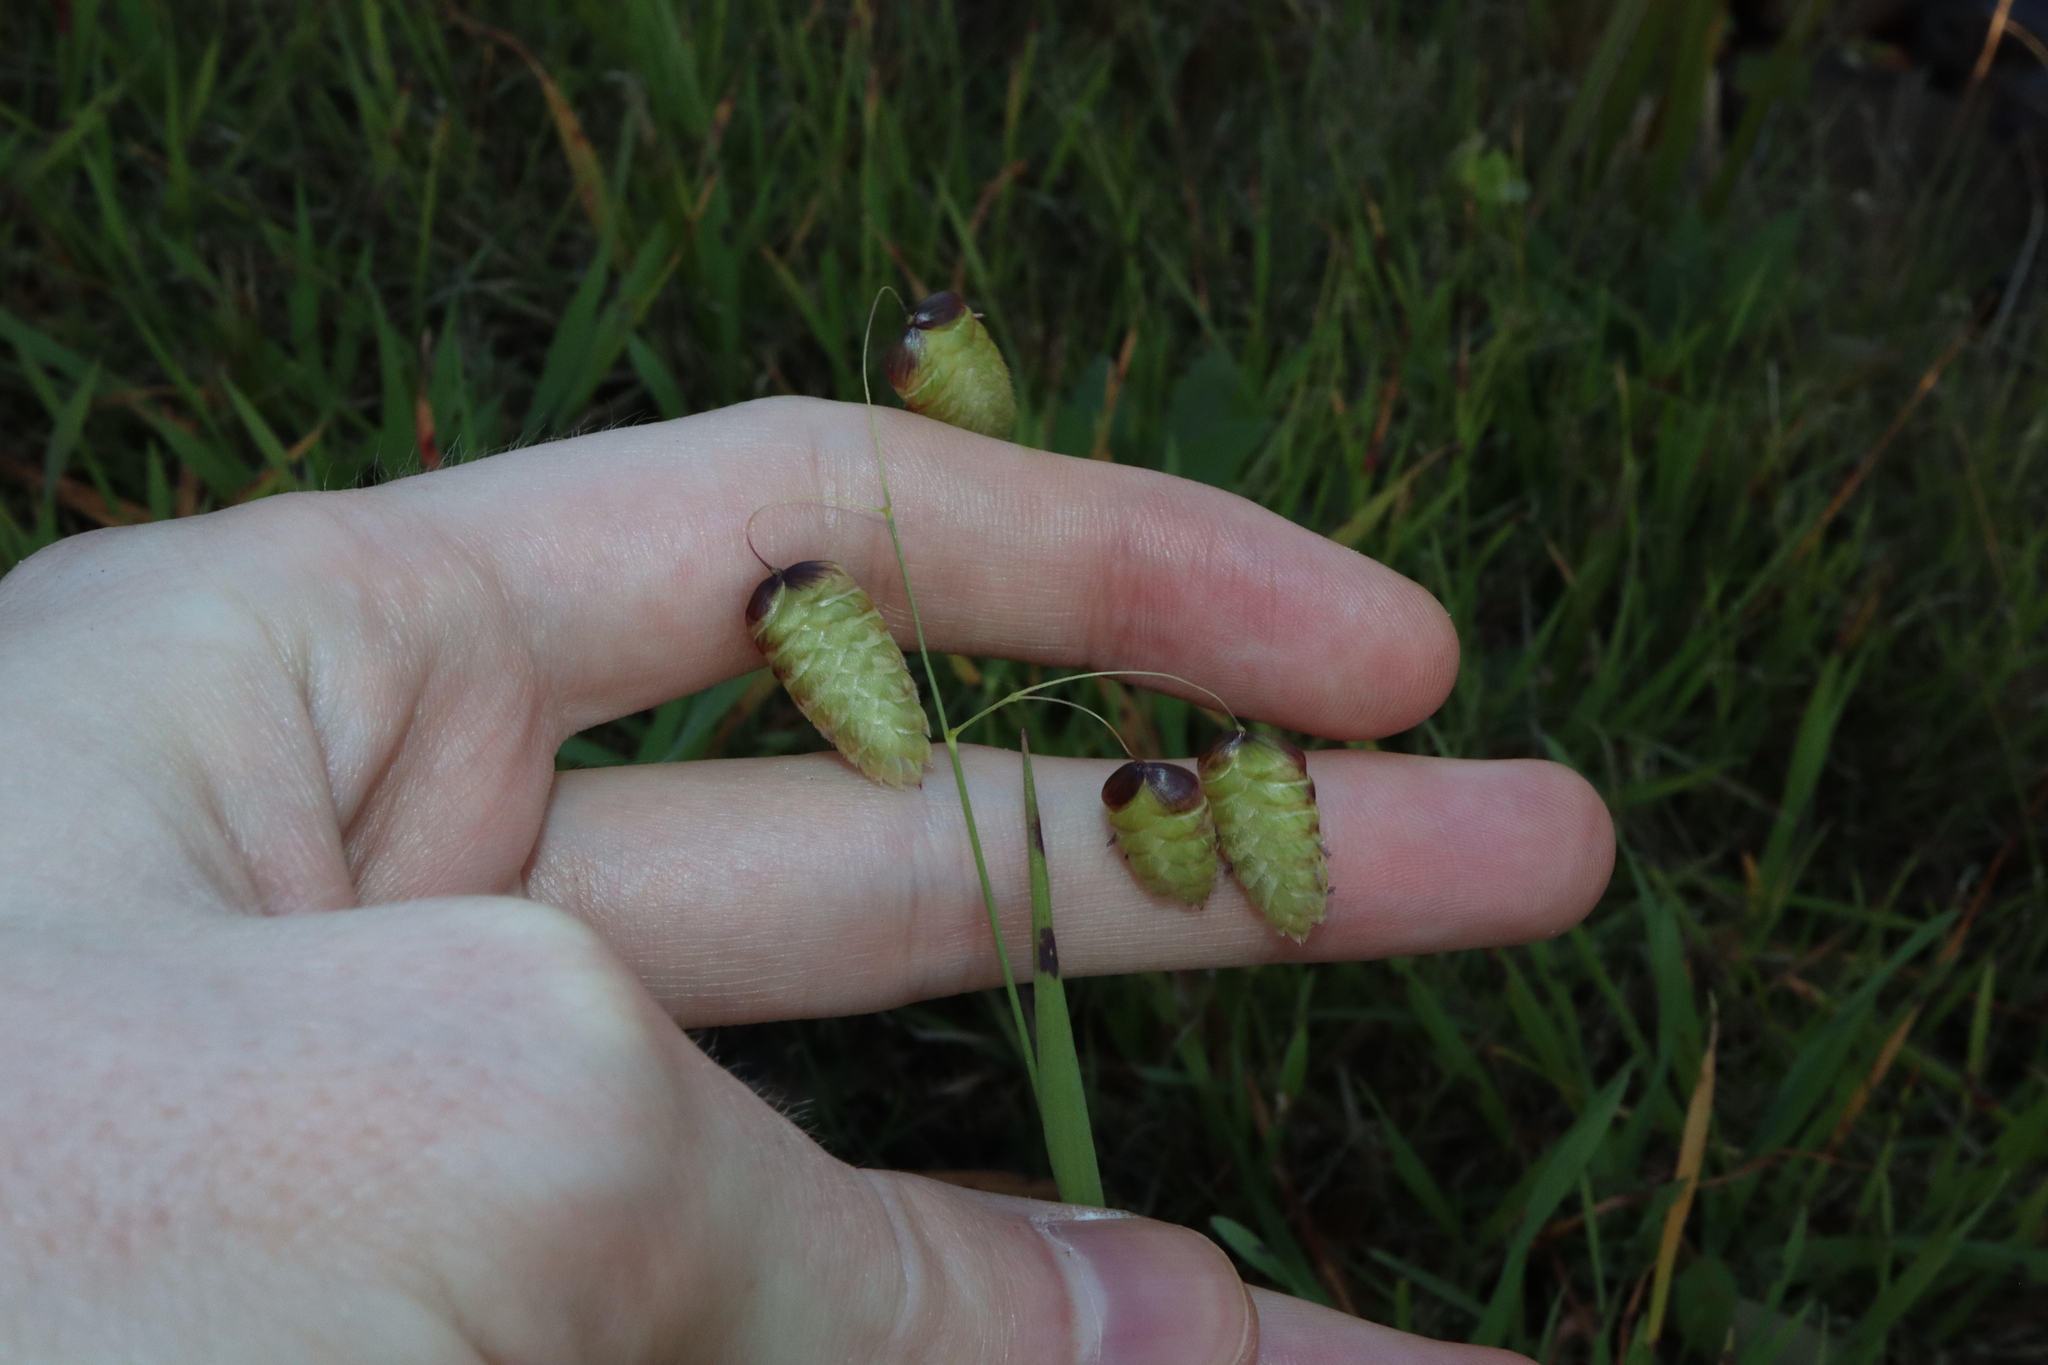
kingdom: Plantae
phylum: Tracheophyta
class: Liliopsida
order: Poales
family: Poaceae
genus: Briza
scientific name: Briza maxima
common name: Big quakinggrass
